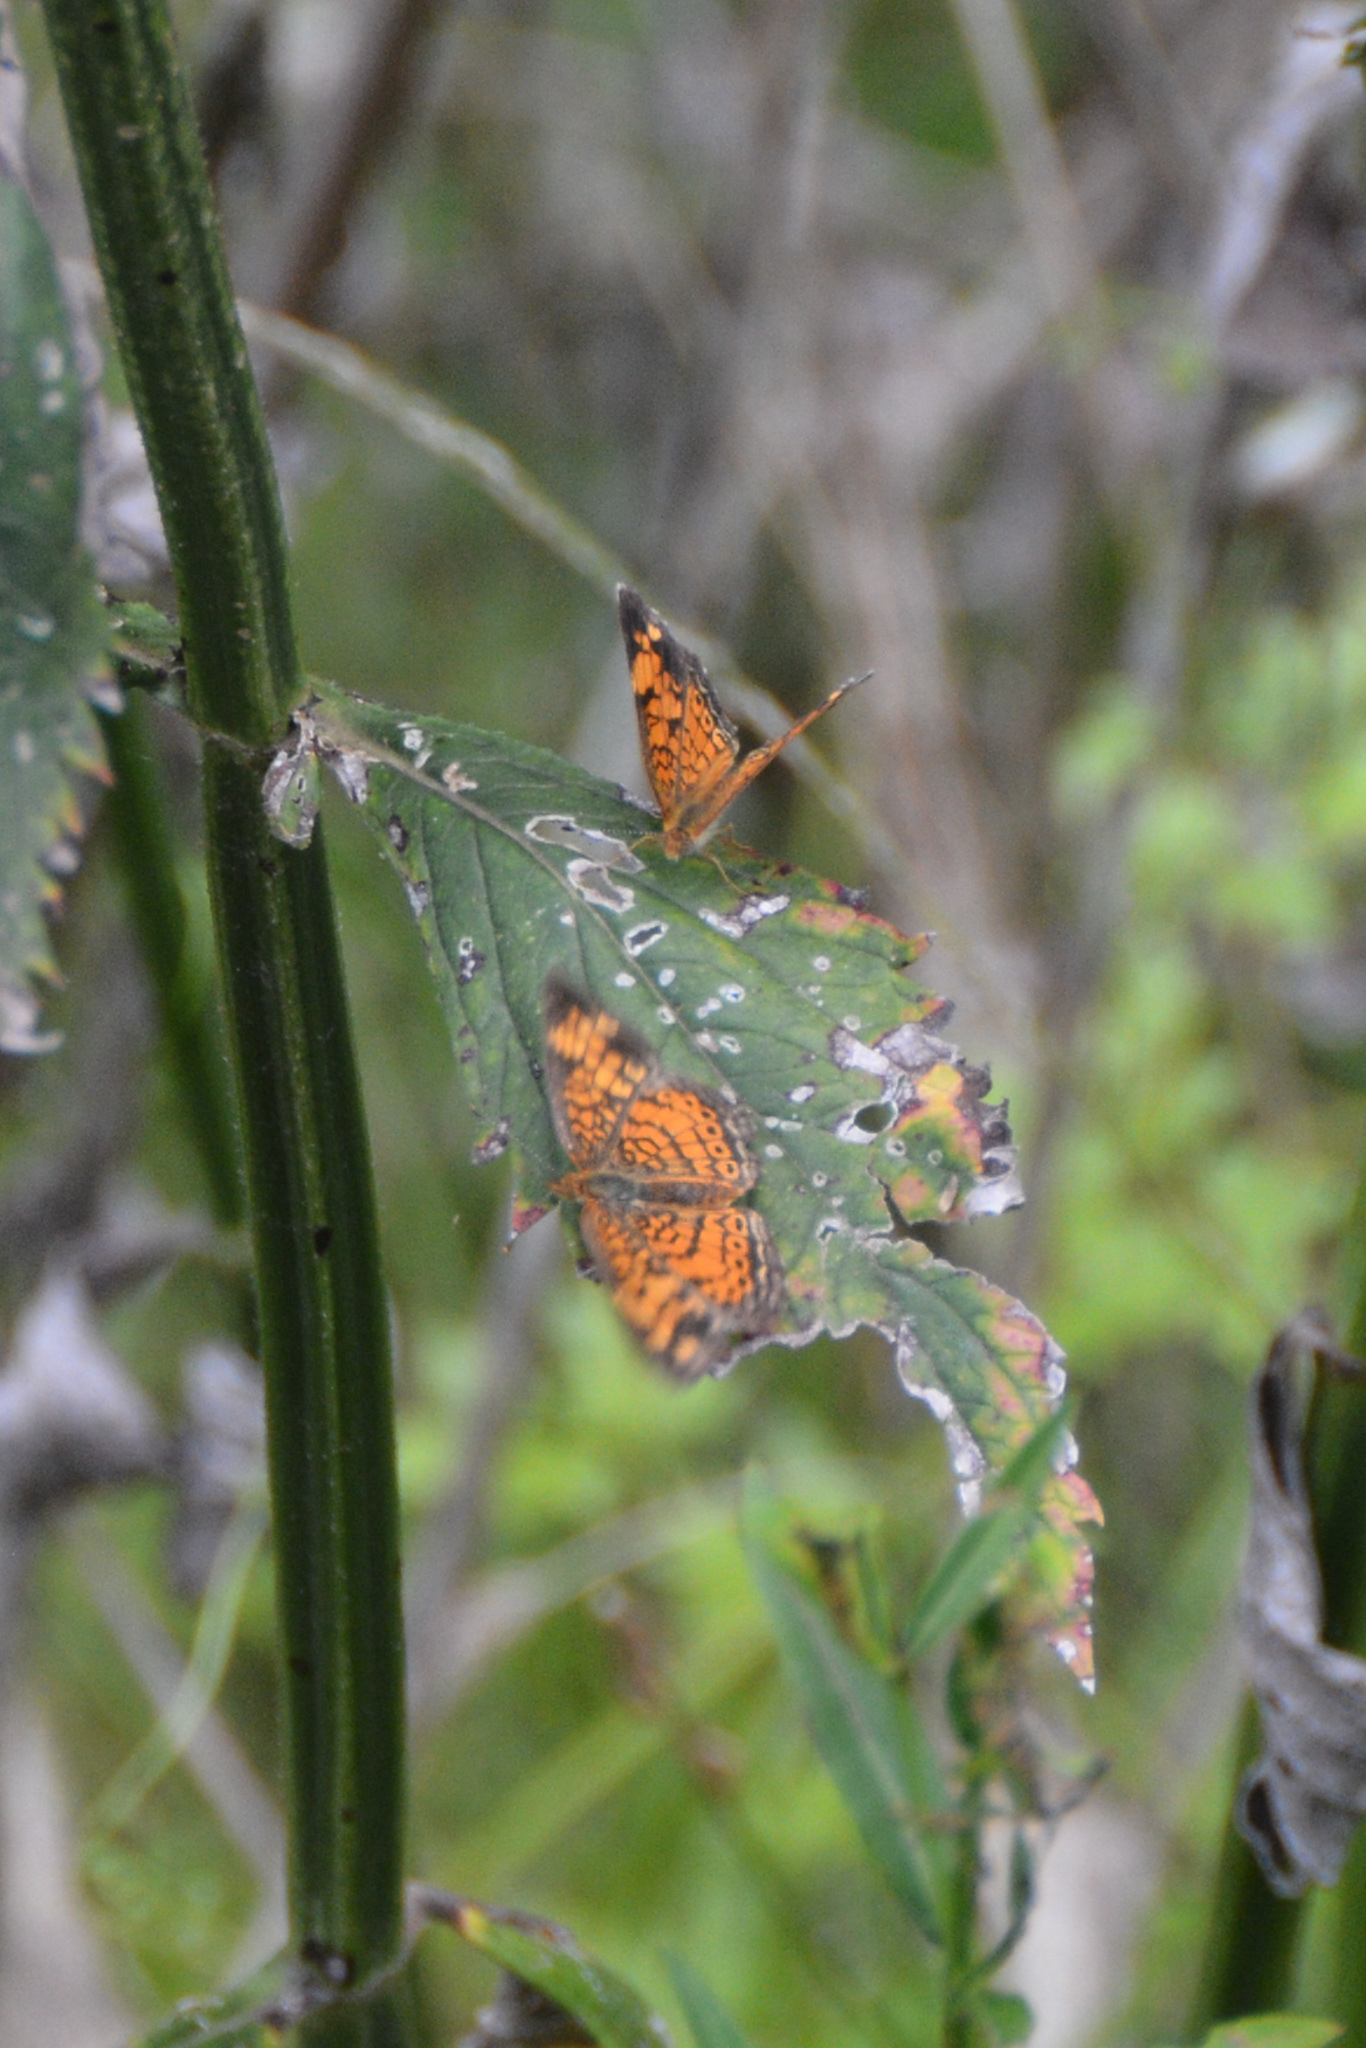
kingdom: Animalia
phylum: Arthropoda
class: Insecta
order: Lepidoptera
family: Nymphalidae
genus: Phyciodes
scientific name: Phyciodes tharos
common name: Pearl crescent
